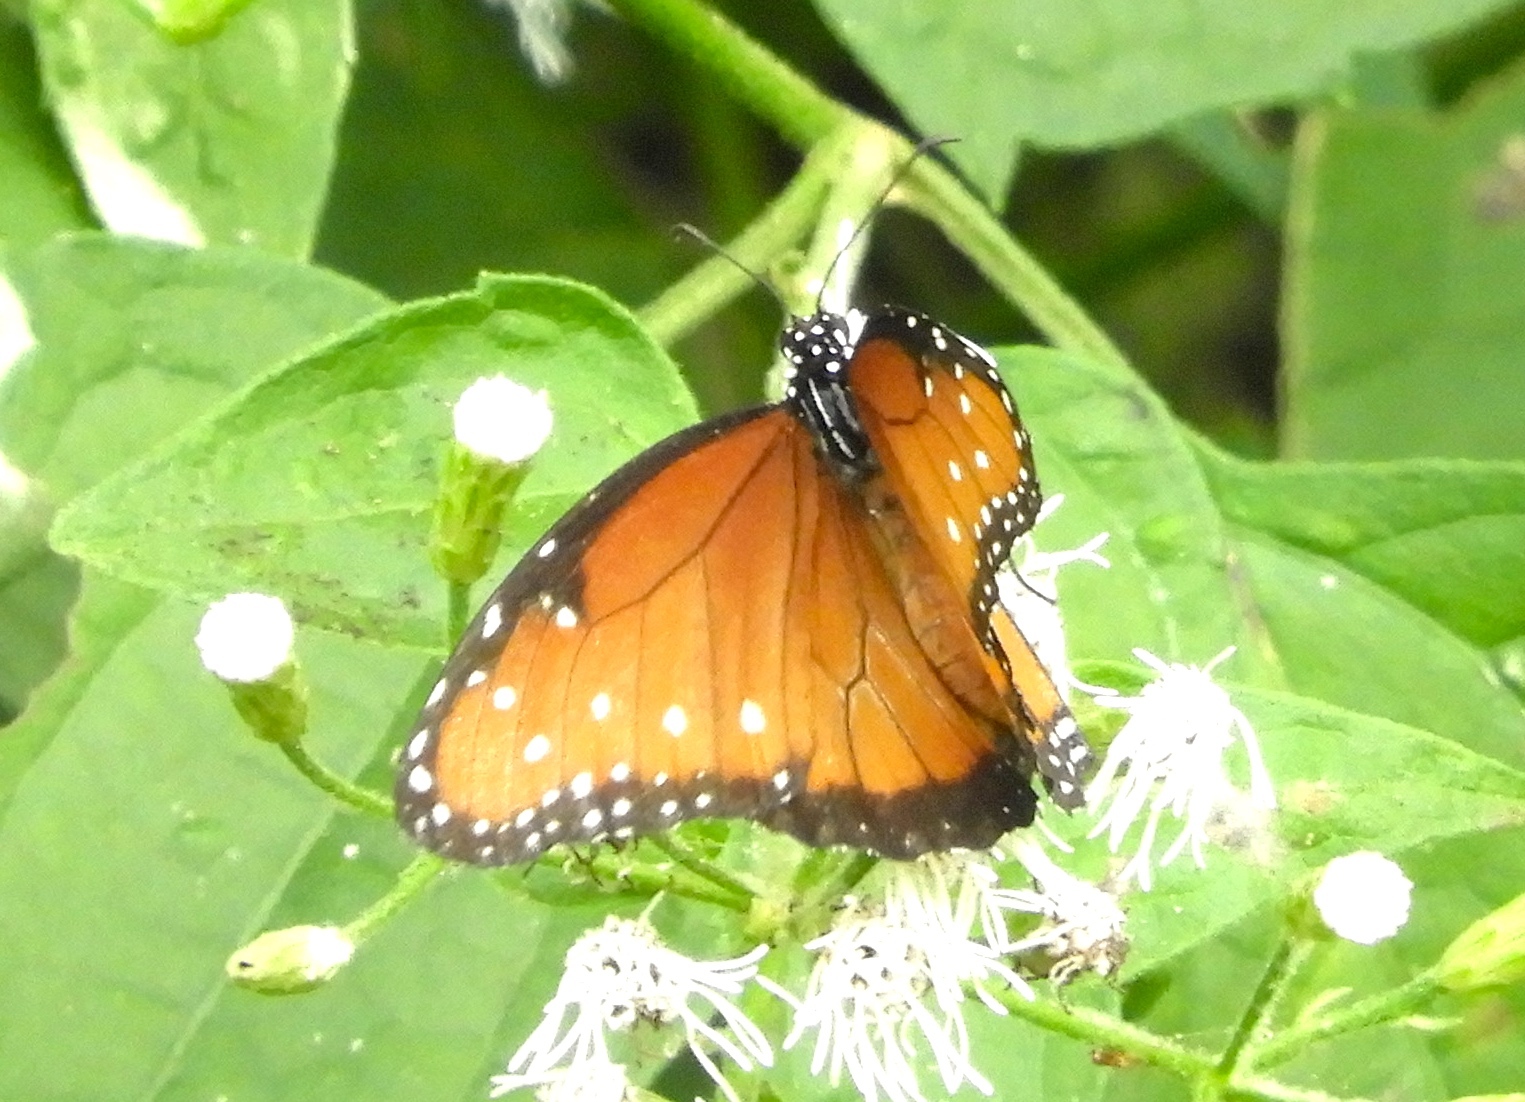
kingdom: Animalia
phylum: Arthropoda
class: Insecta
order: Lepidoptera
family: Nymphalidae
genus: Danaus
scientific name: Danaus gilippus
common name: Queen
